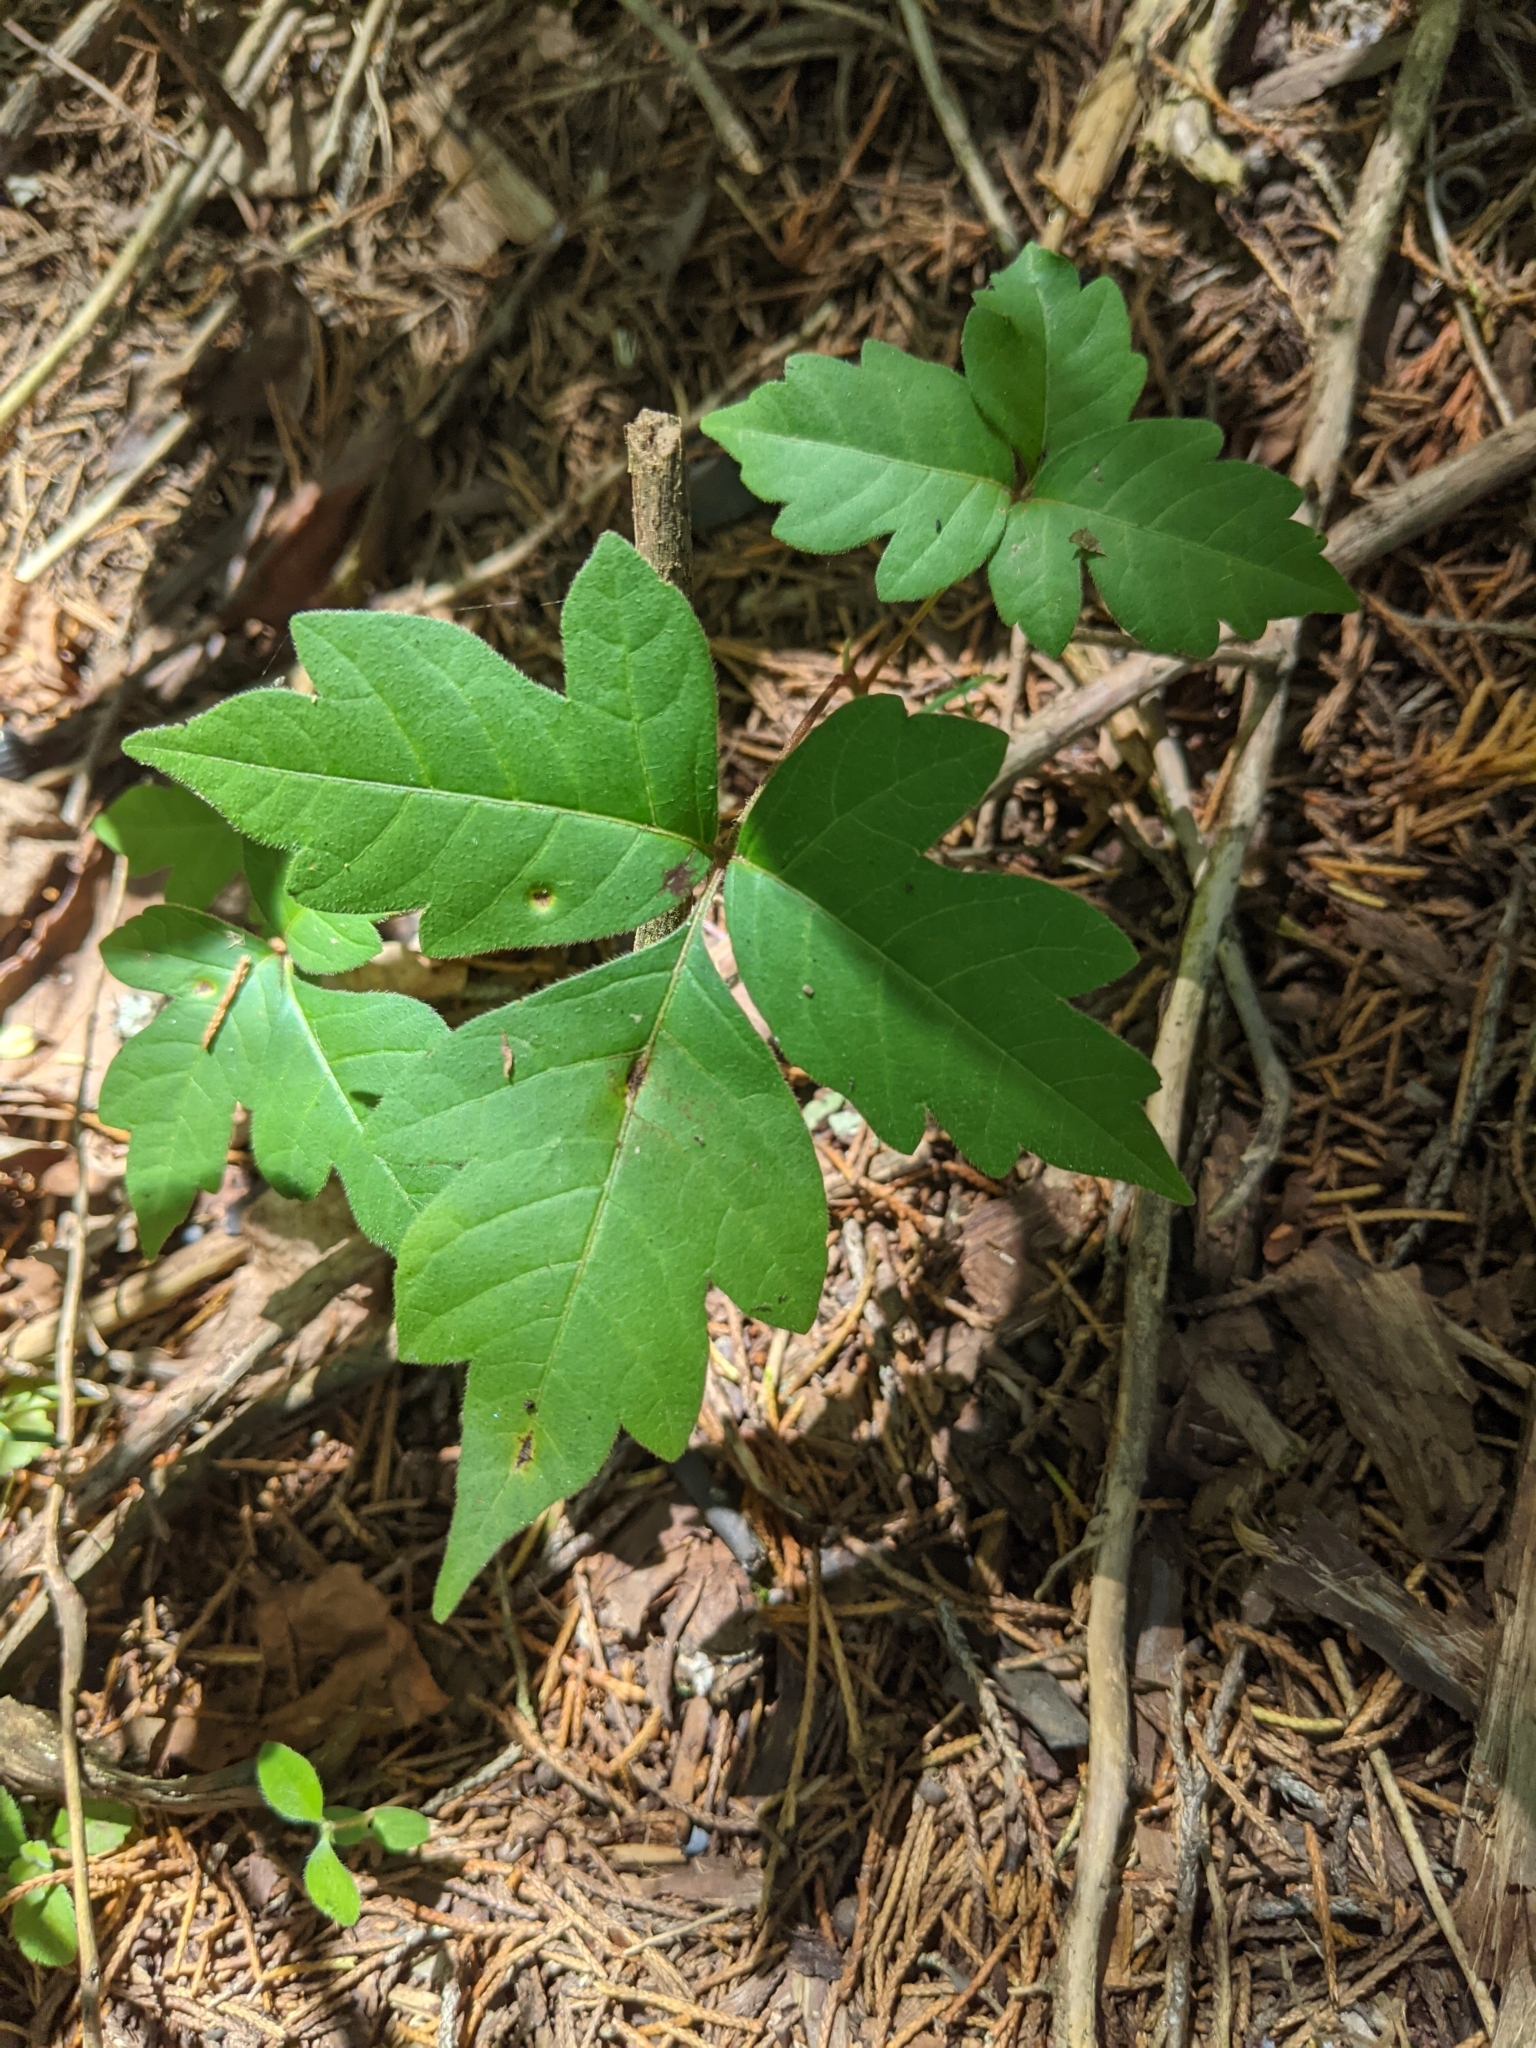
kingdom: Plantae
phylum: Tracheophyta
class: Magnoliopsida
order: Sapindales
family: Anacardiaceae
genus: Toxicodendron
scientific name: Toxicodendron radicans
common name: Poison ivy
